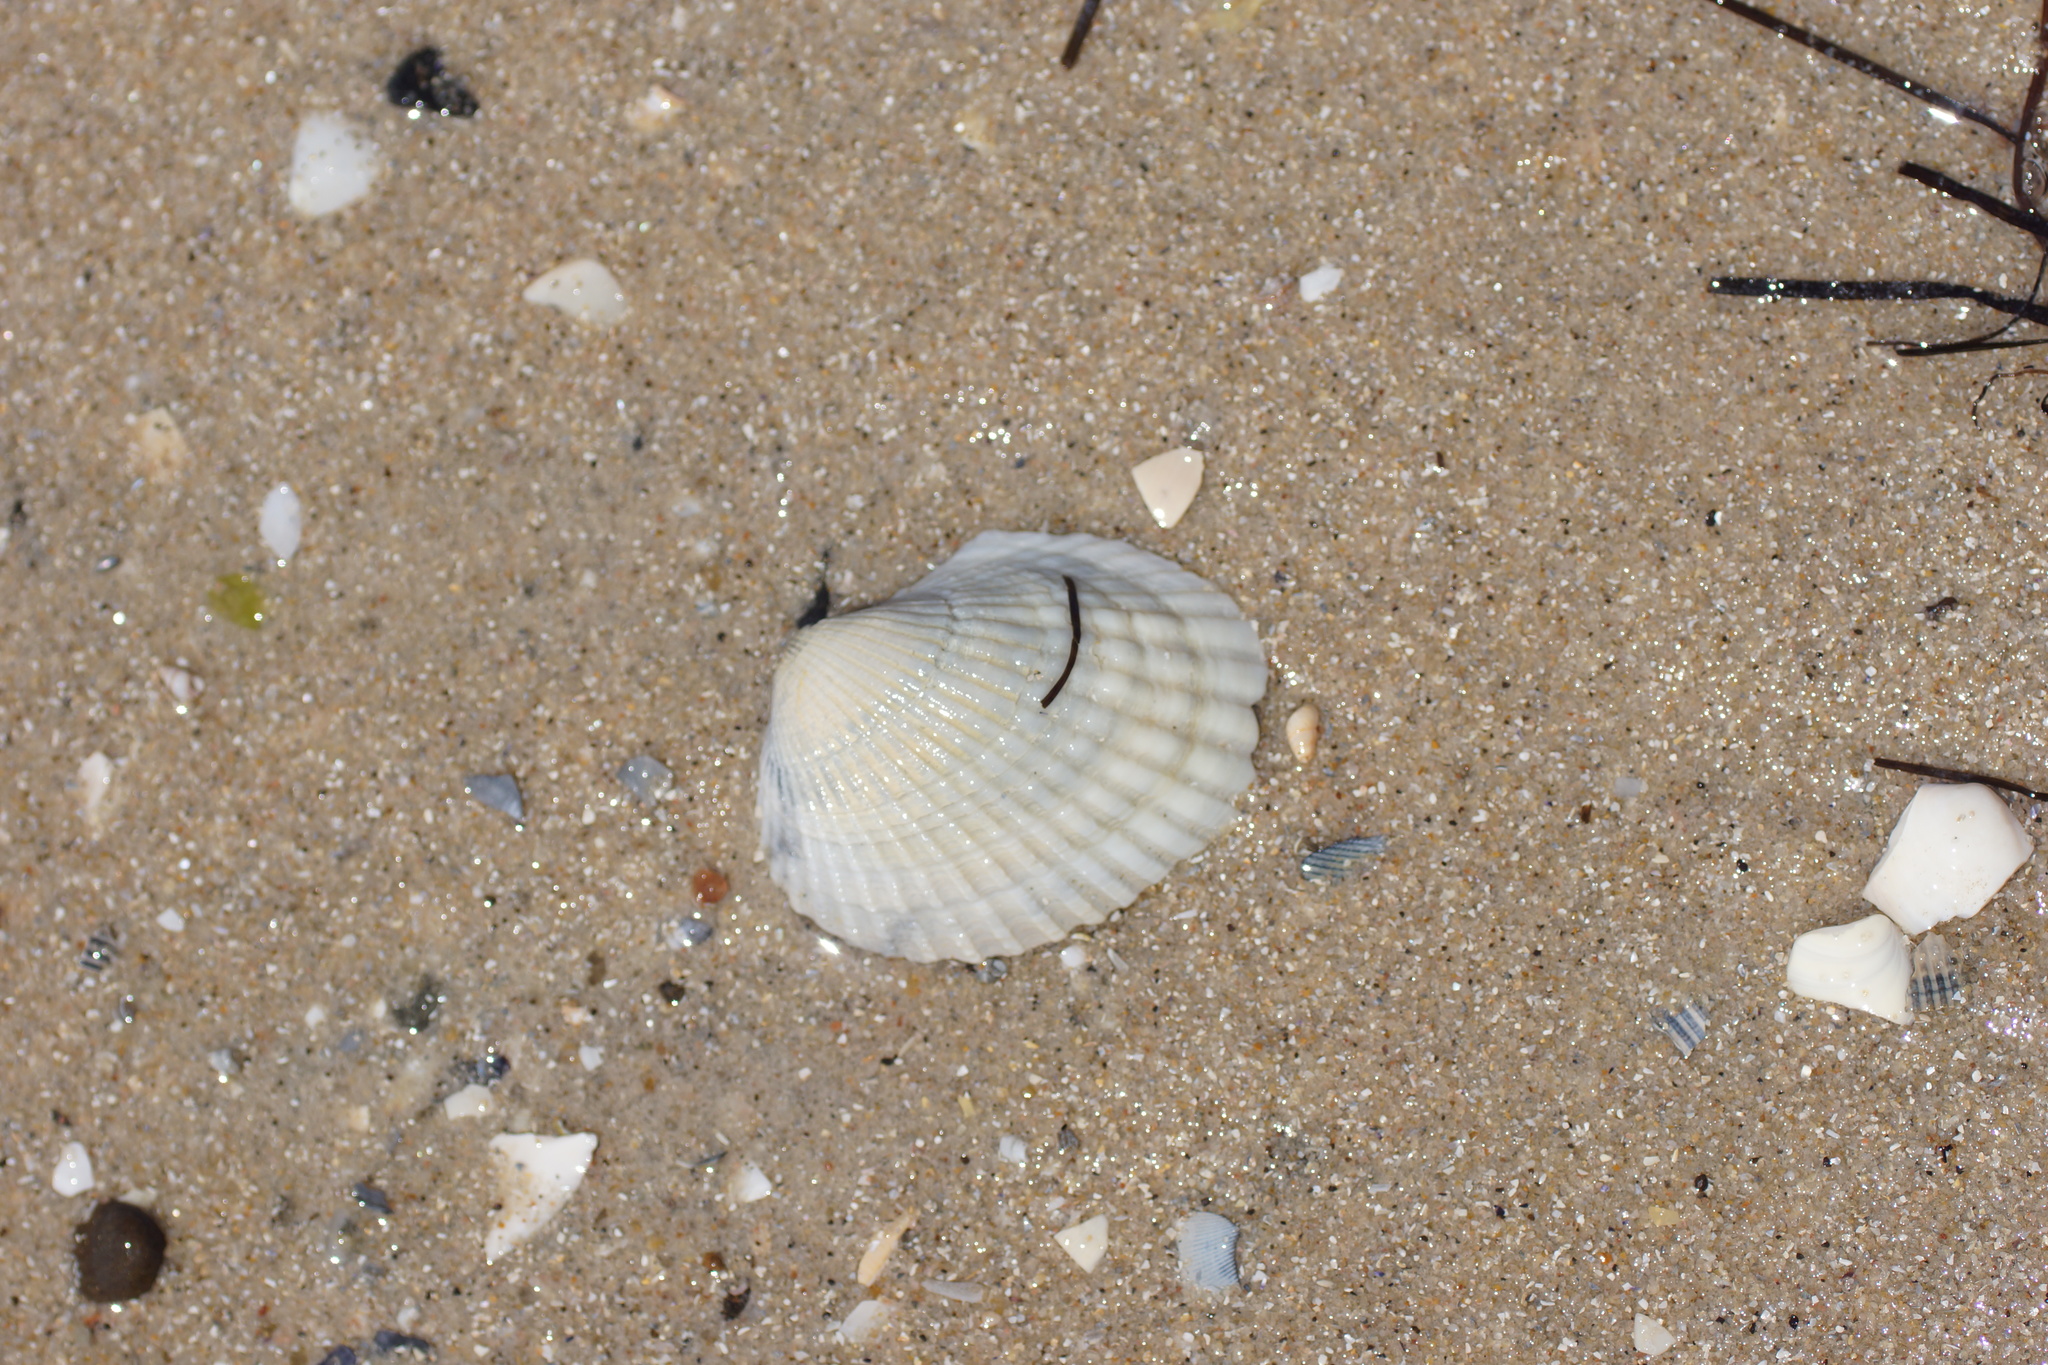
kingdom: Animalia
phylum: Mollusca
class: Bivalvia
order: Arcida
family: Arcidae
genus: Anadara
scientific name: Anadara trapezia
